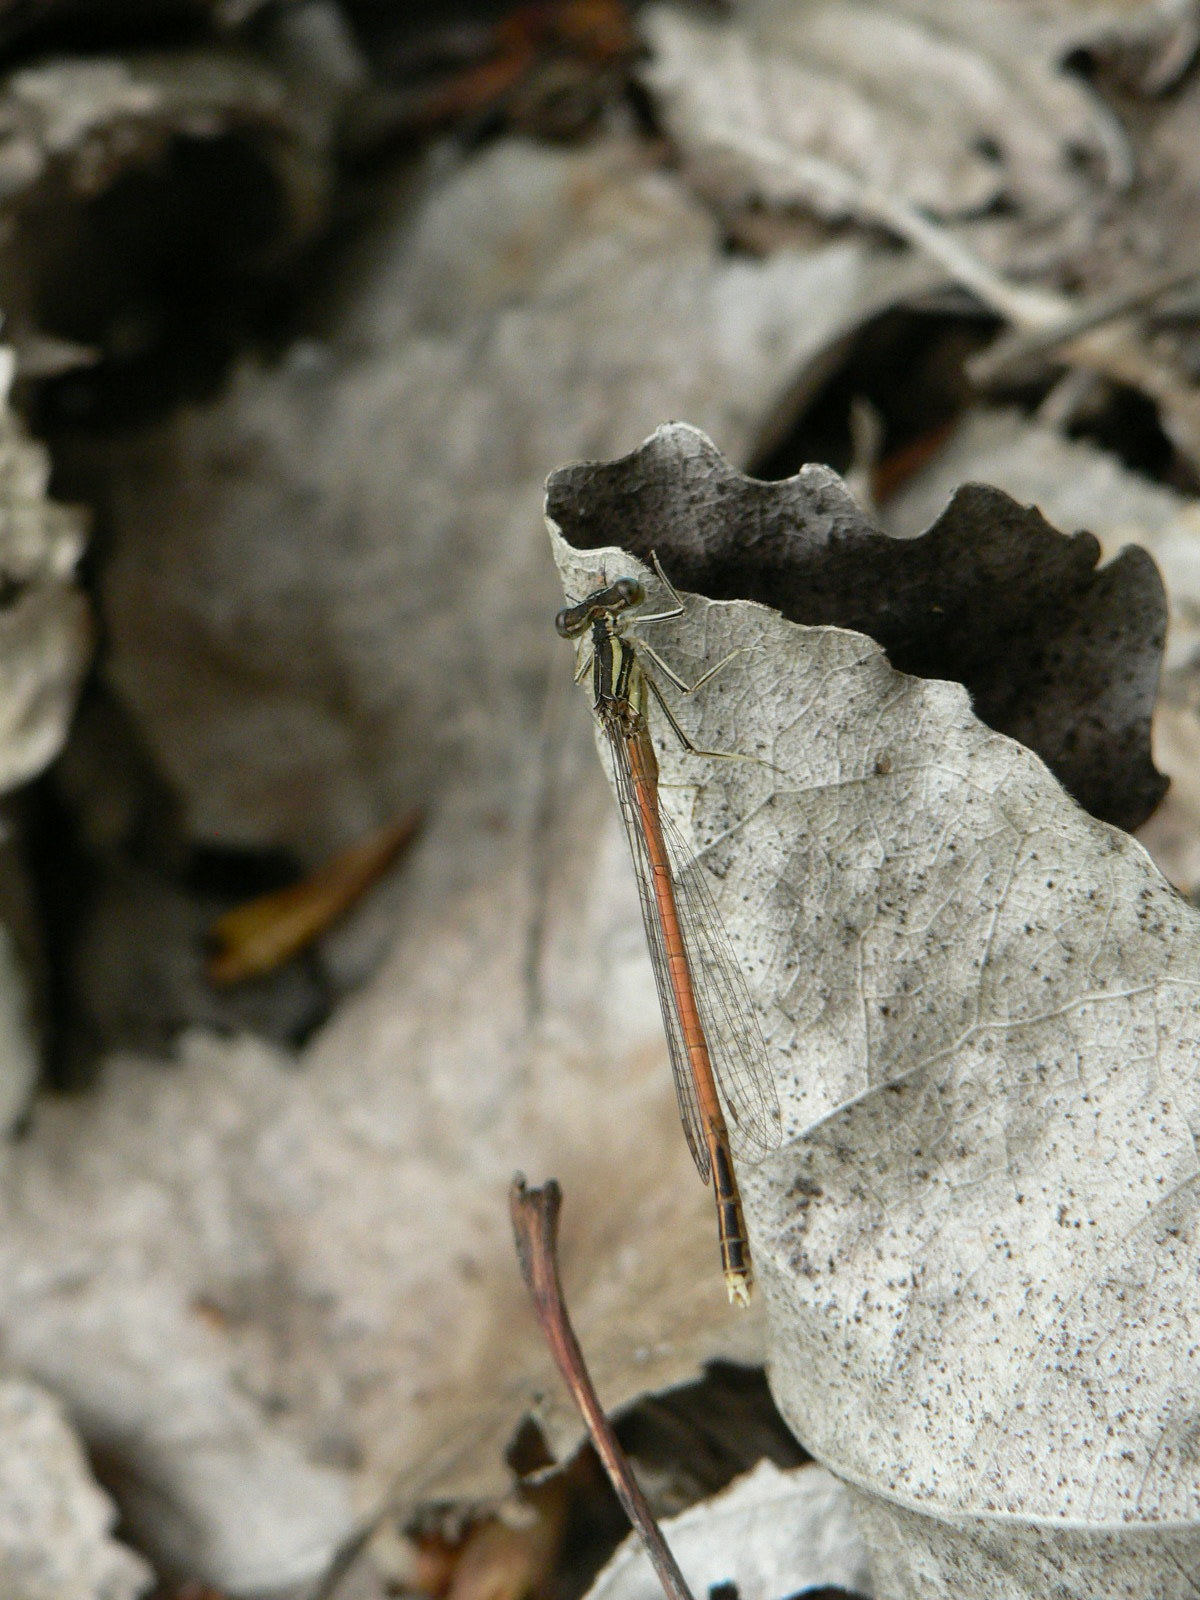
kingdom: Animalia
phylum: Arthropoda
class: Insecta
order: Odonata
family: Platycnemididae
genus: Platycnemis
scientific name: Platycnemis acutipennis
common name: Orange featherleg
